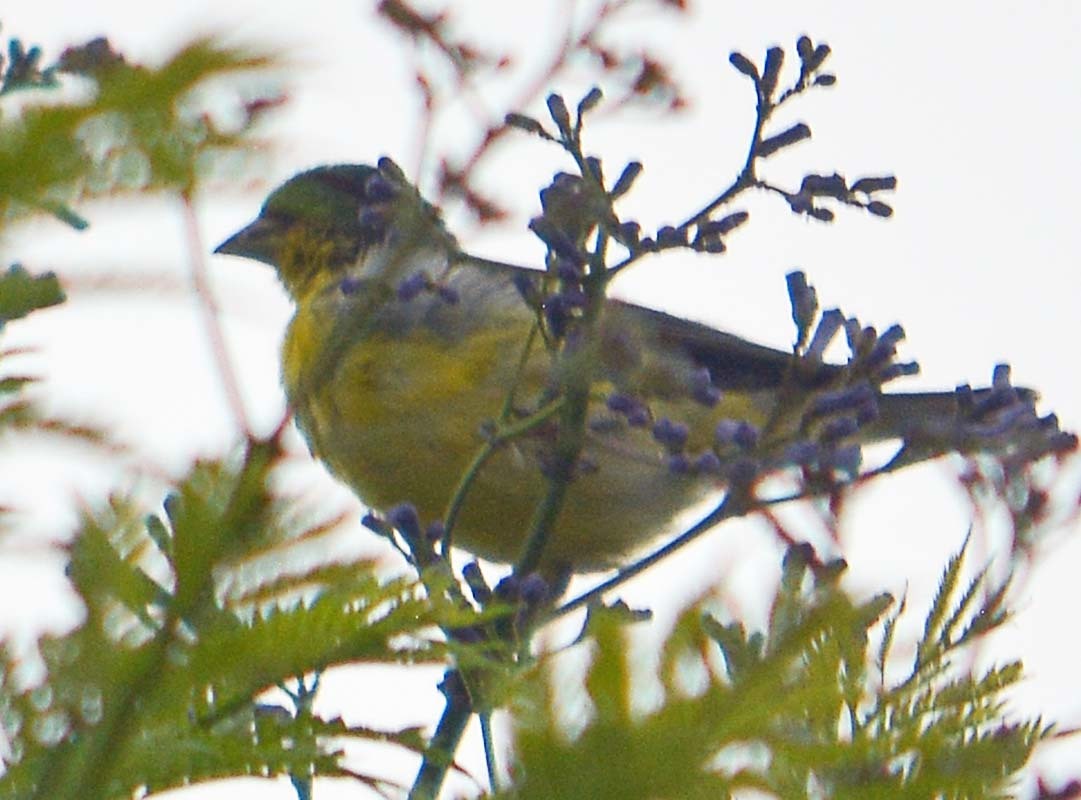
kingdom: Animalia
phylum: Chordata
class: Aves
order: Passeriformes
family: Fringillidae
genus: Spinus
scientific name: Spinus psaltria
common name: Lesser goldfinch
